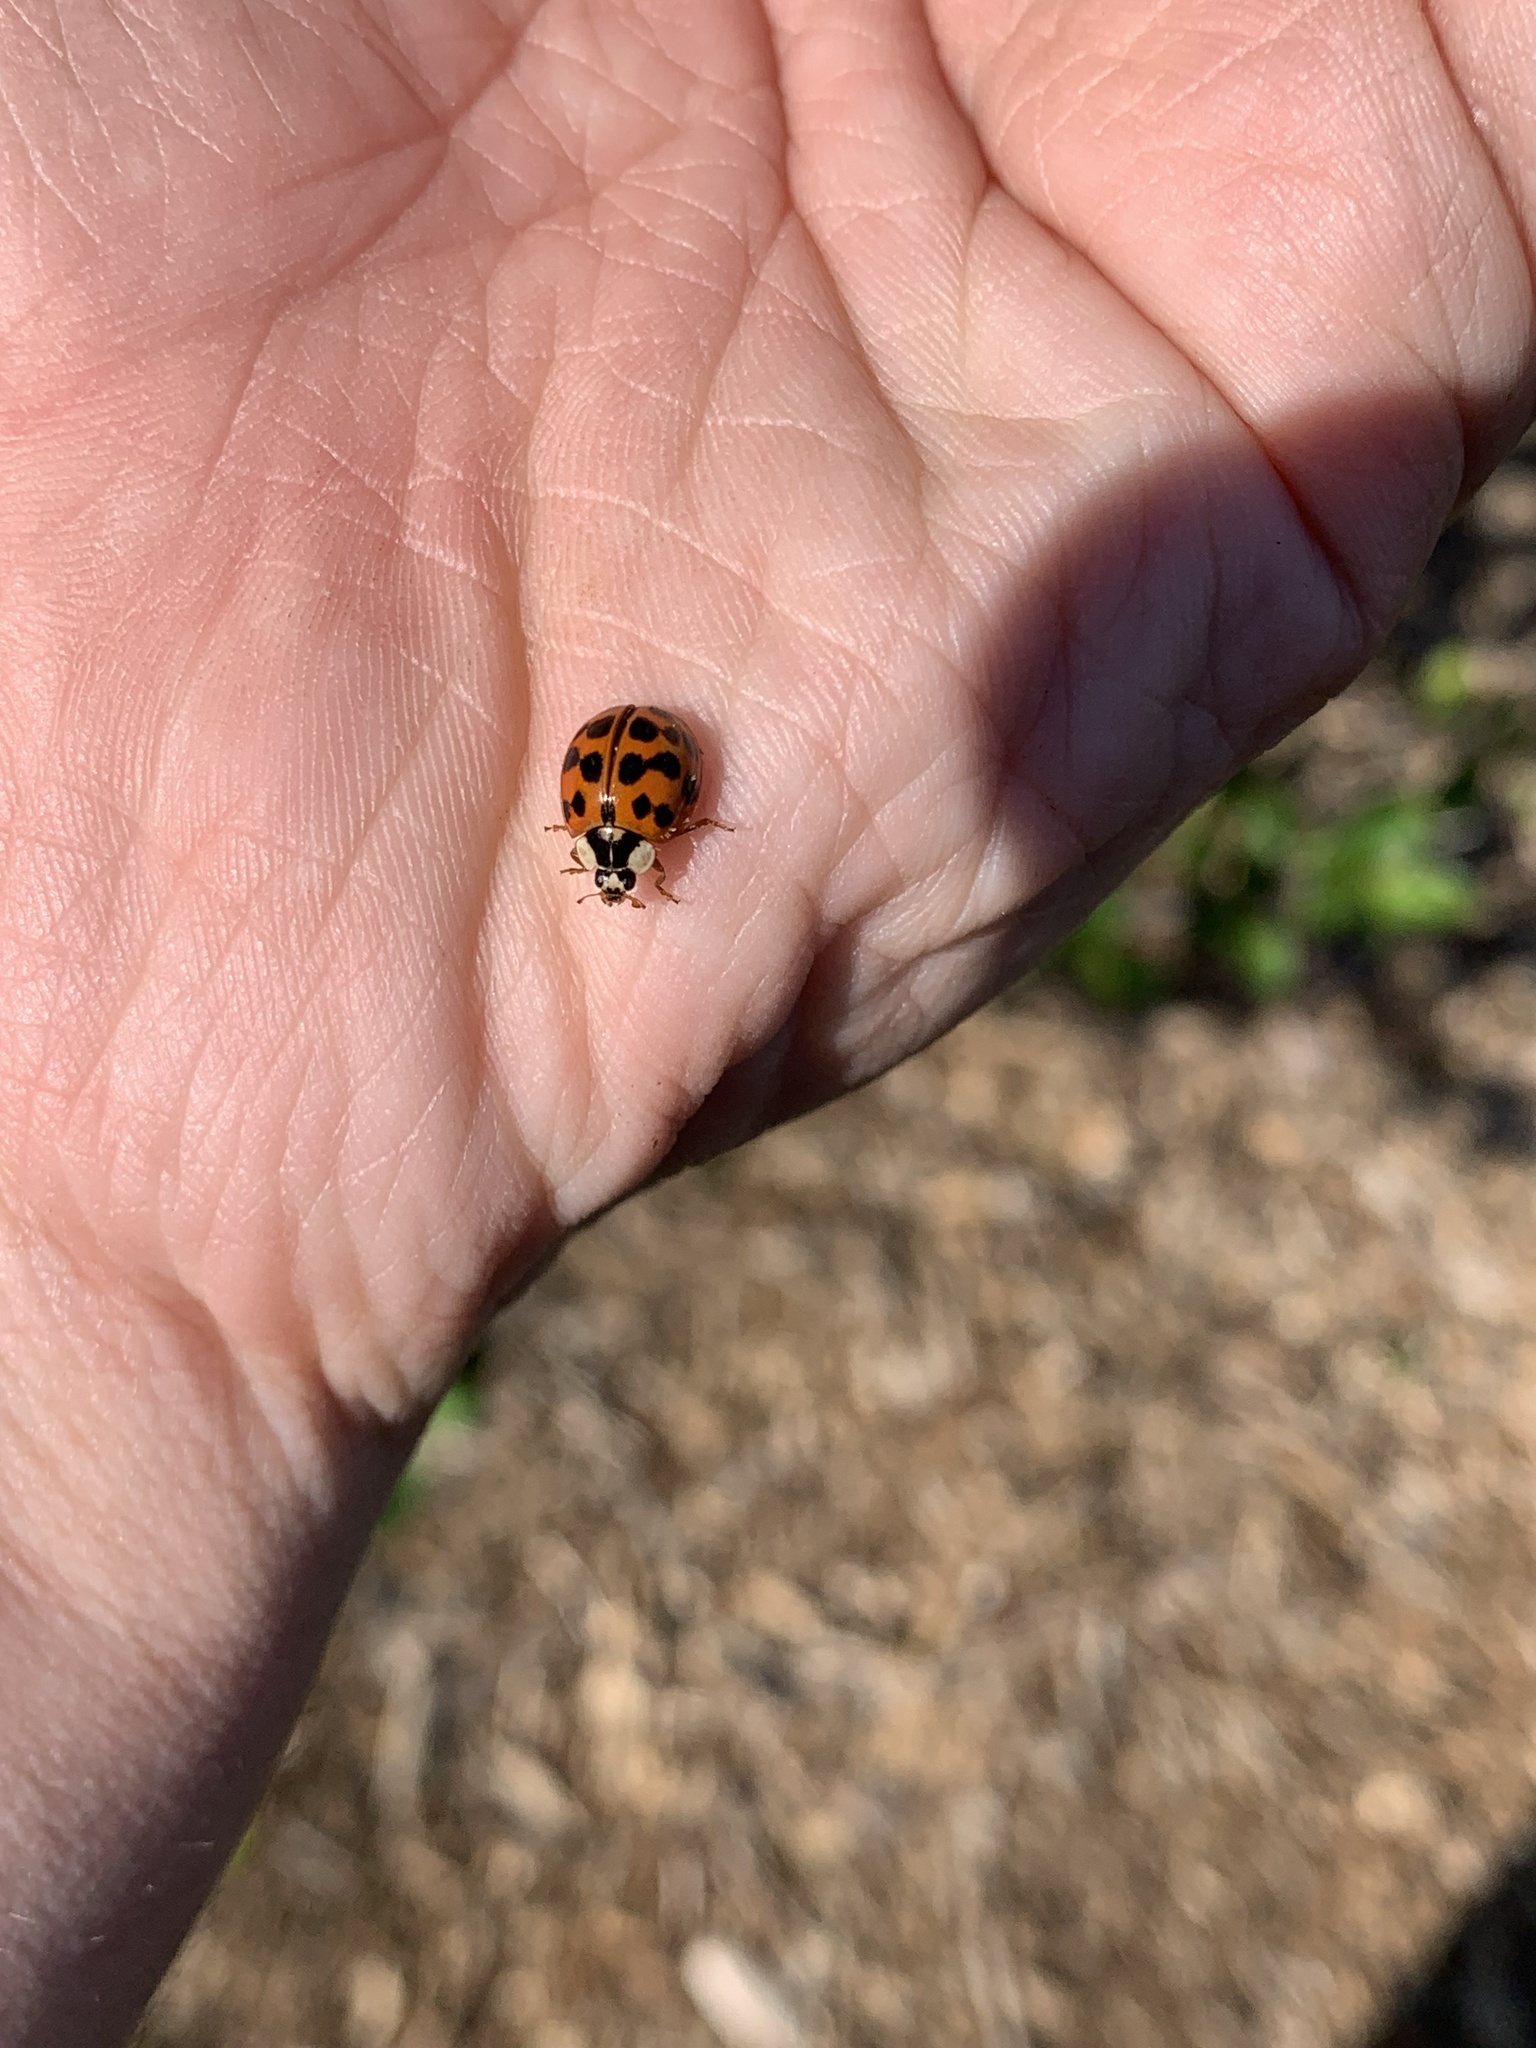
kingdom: Animalia
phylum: Arthropoda
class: Insecta
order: Coleoptera
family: Coccinellidae
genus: Harmonia
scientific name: Harmonia axyridis
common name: Harlequin ladybird
